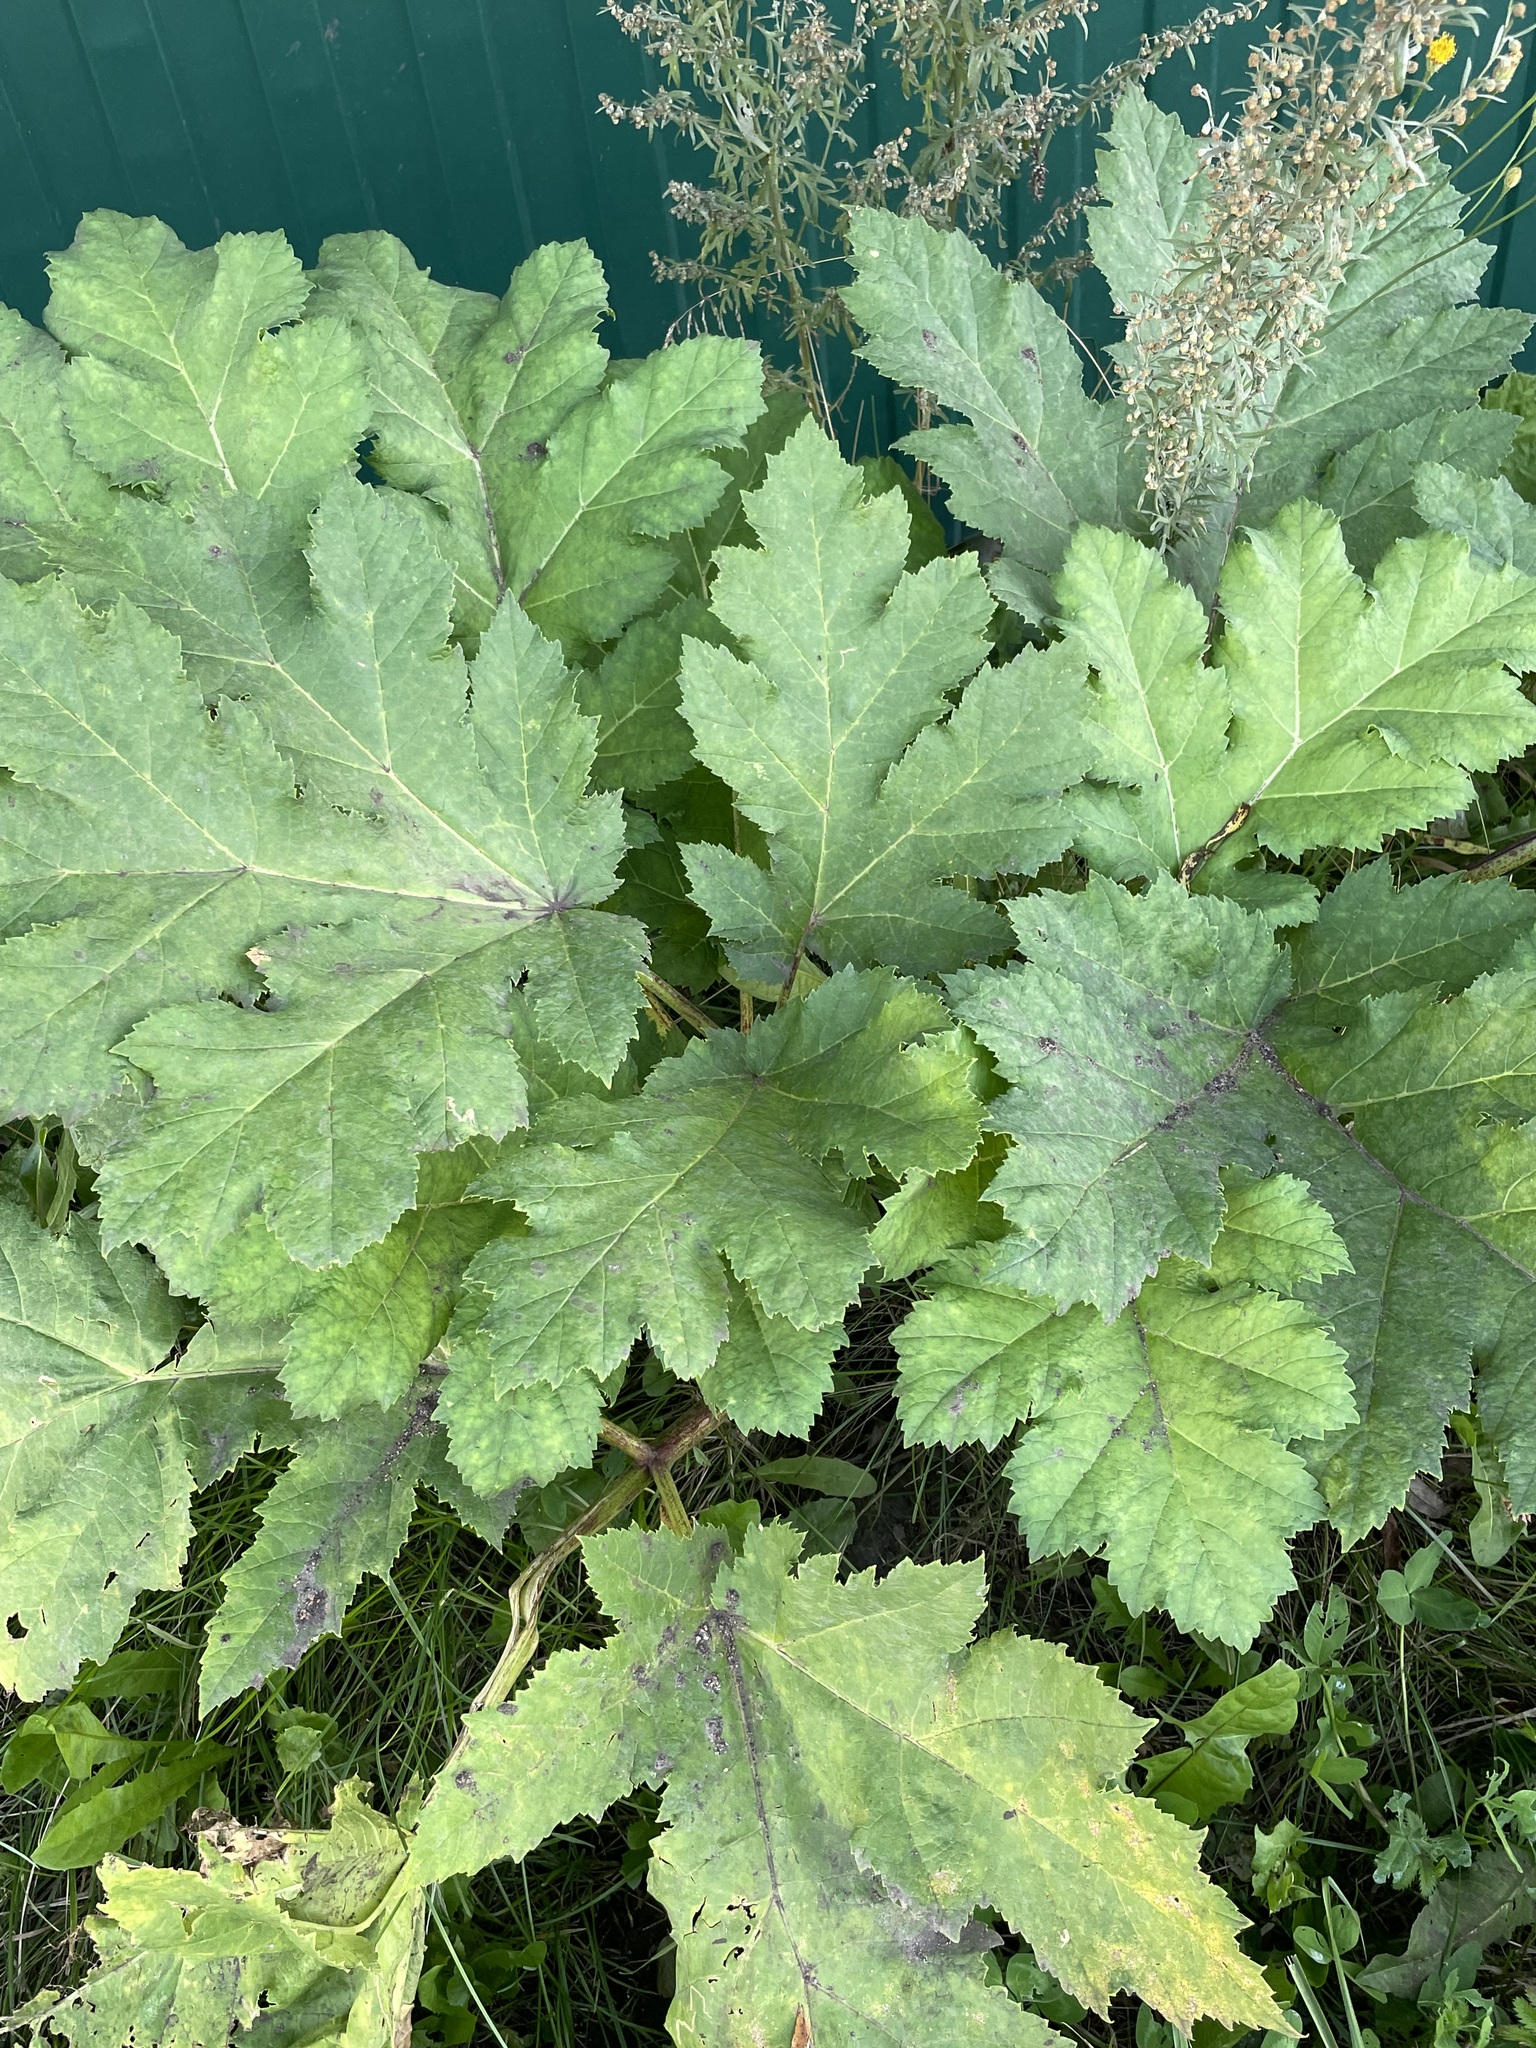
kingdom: Plantae
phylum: Tracheophyta
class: Magnoliopsida
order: Apiales
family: Apiaceae
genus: Heracleum
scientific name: Heracleum sosnowskyi
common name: Sosnowsky's hogweed
